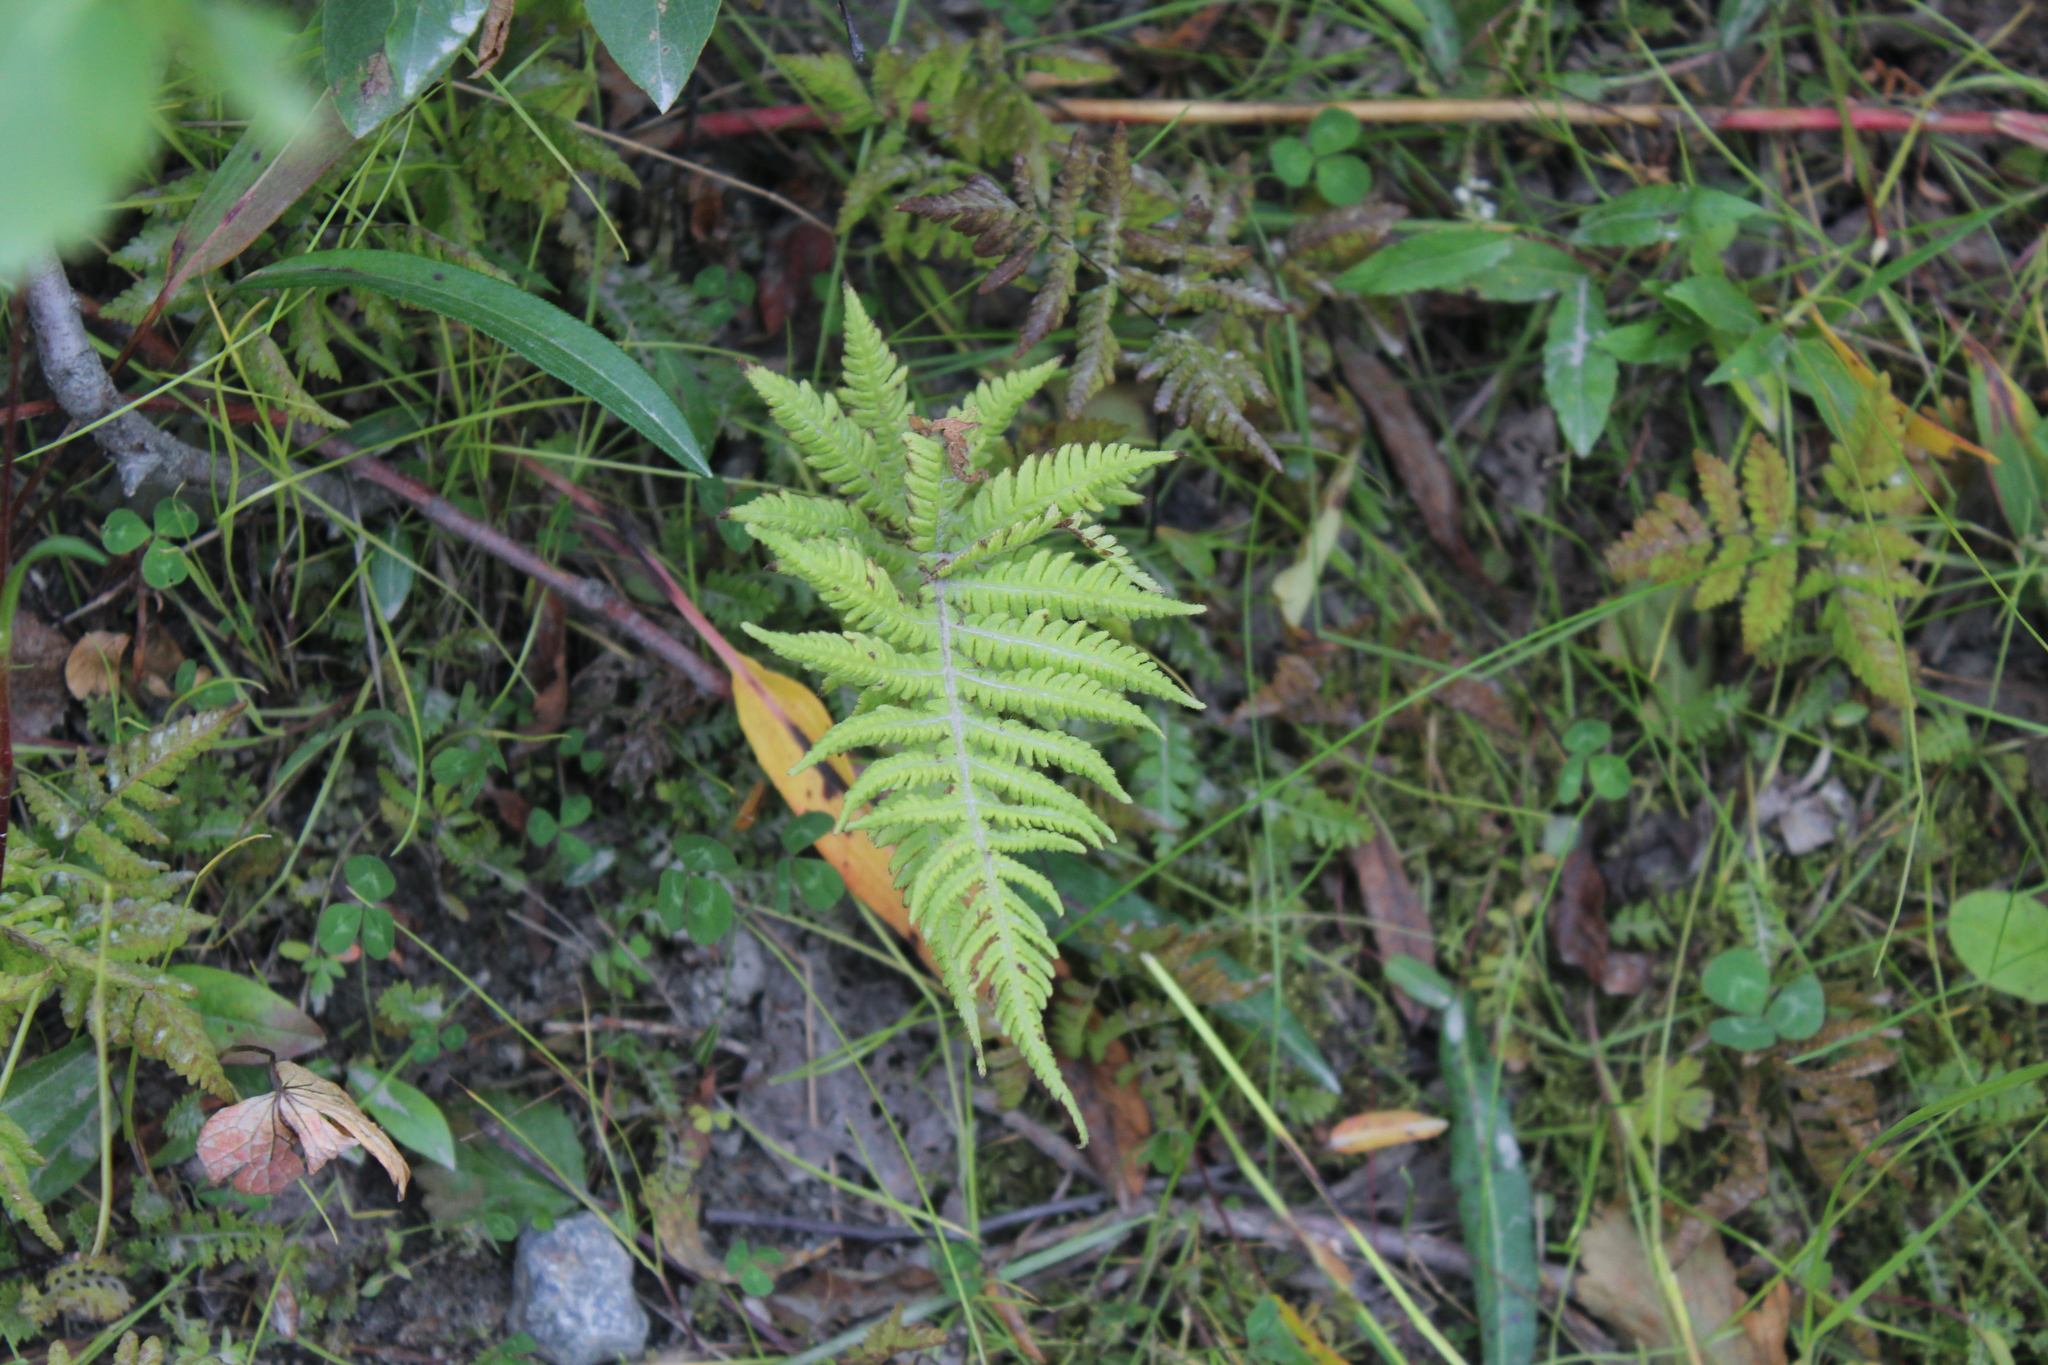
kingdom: Plantae
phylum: Tracheophyta
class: Polypodiopsida
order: Polypodiales
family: Thelypteridaceae
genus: Phegopteris
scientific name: Phegopteris connectilis
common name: Beech fern
